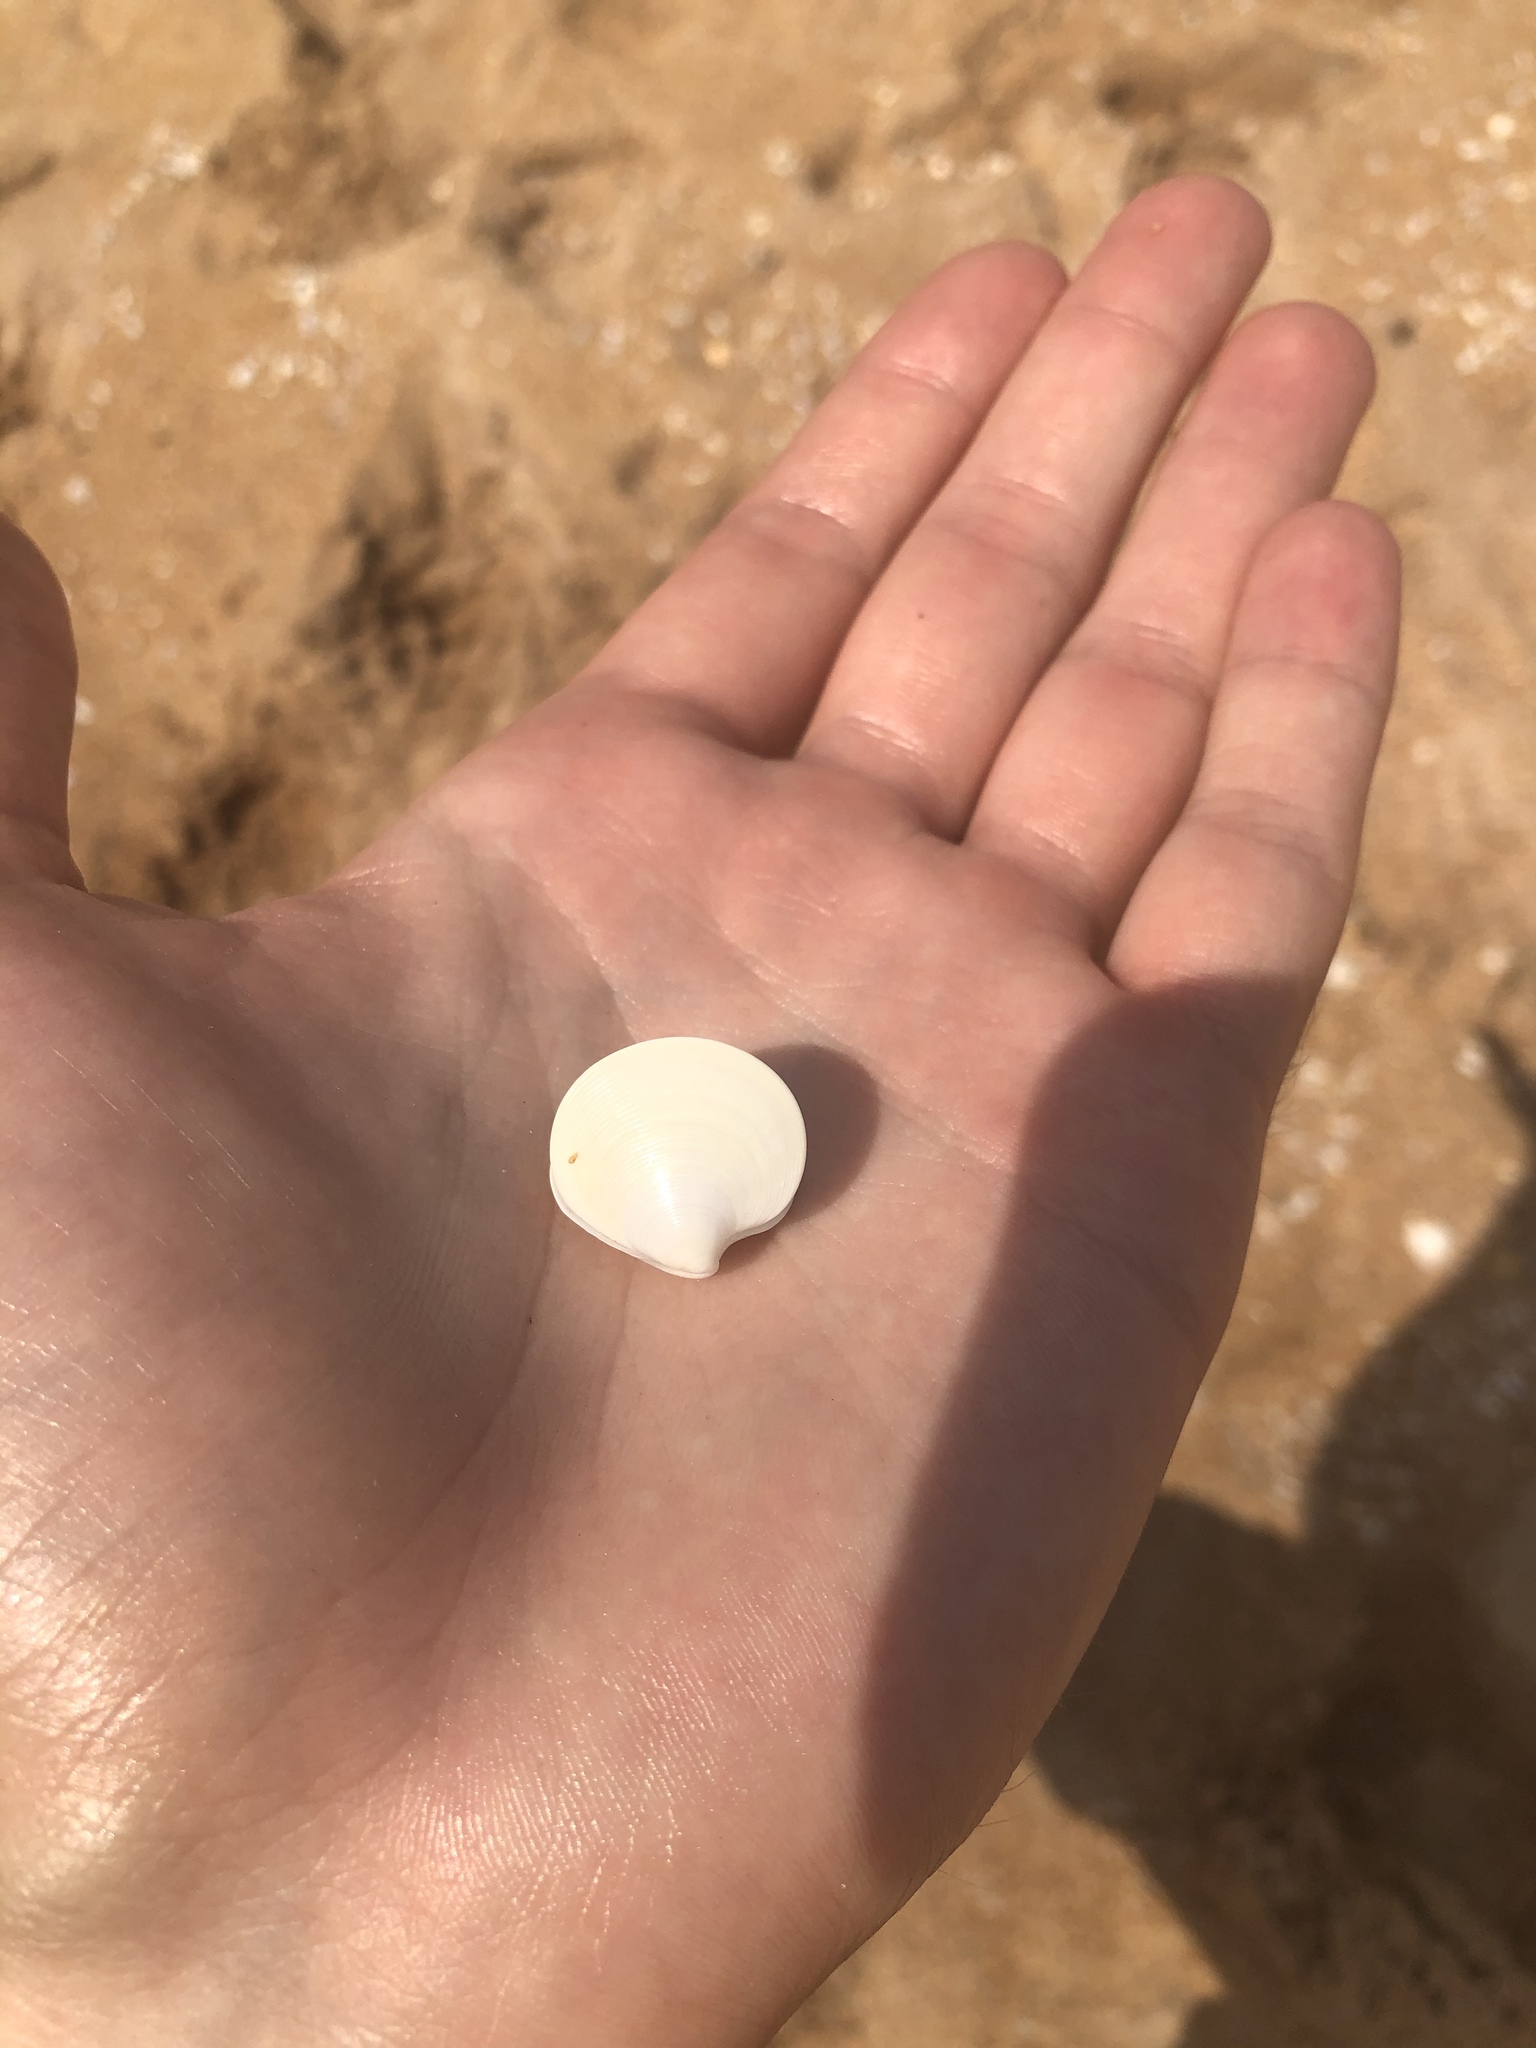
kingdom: Animalia
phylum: Mollusca
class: Bivalvia
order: Venerida
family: Veneridae
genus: Dosinia
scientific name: Dosinia discus
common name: Disk dosinia
